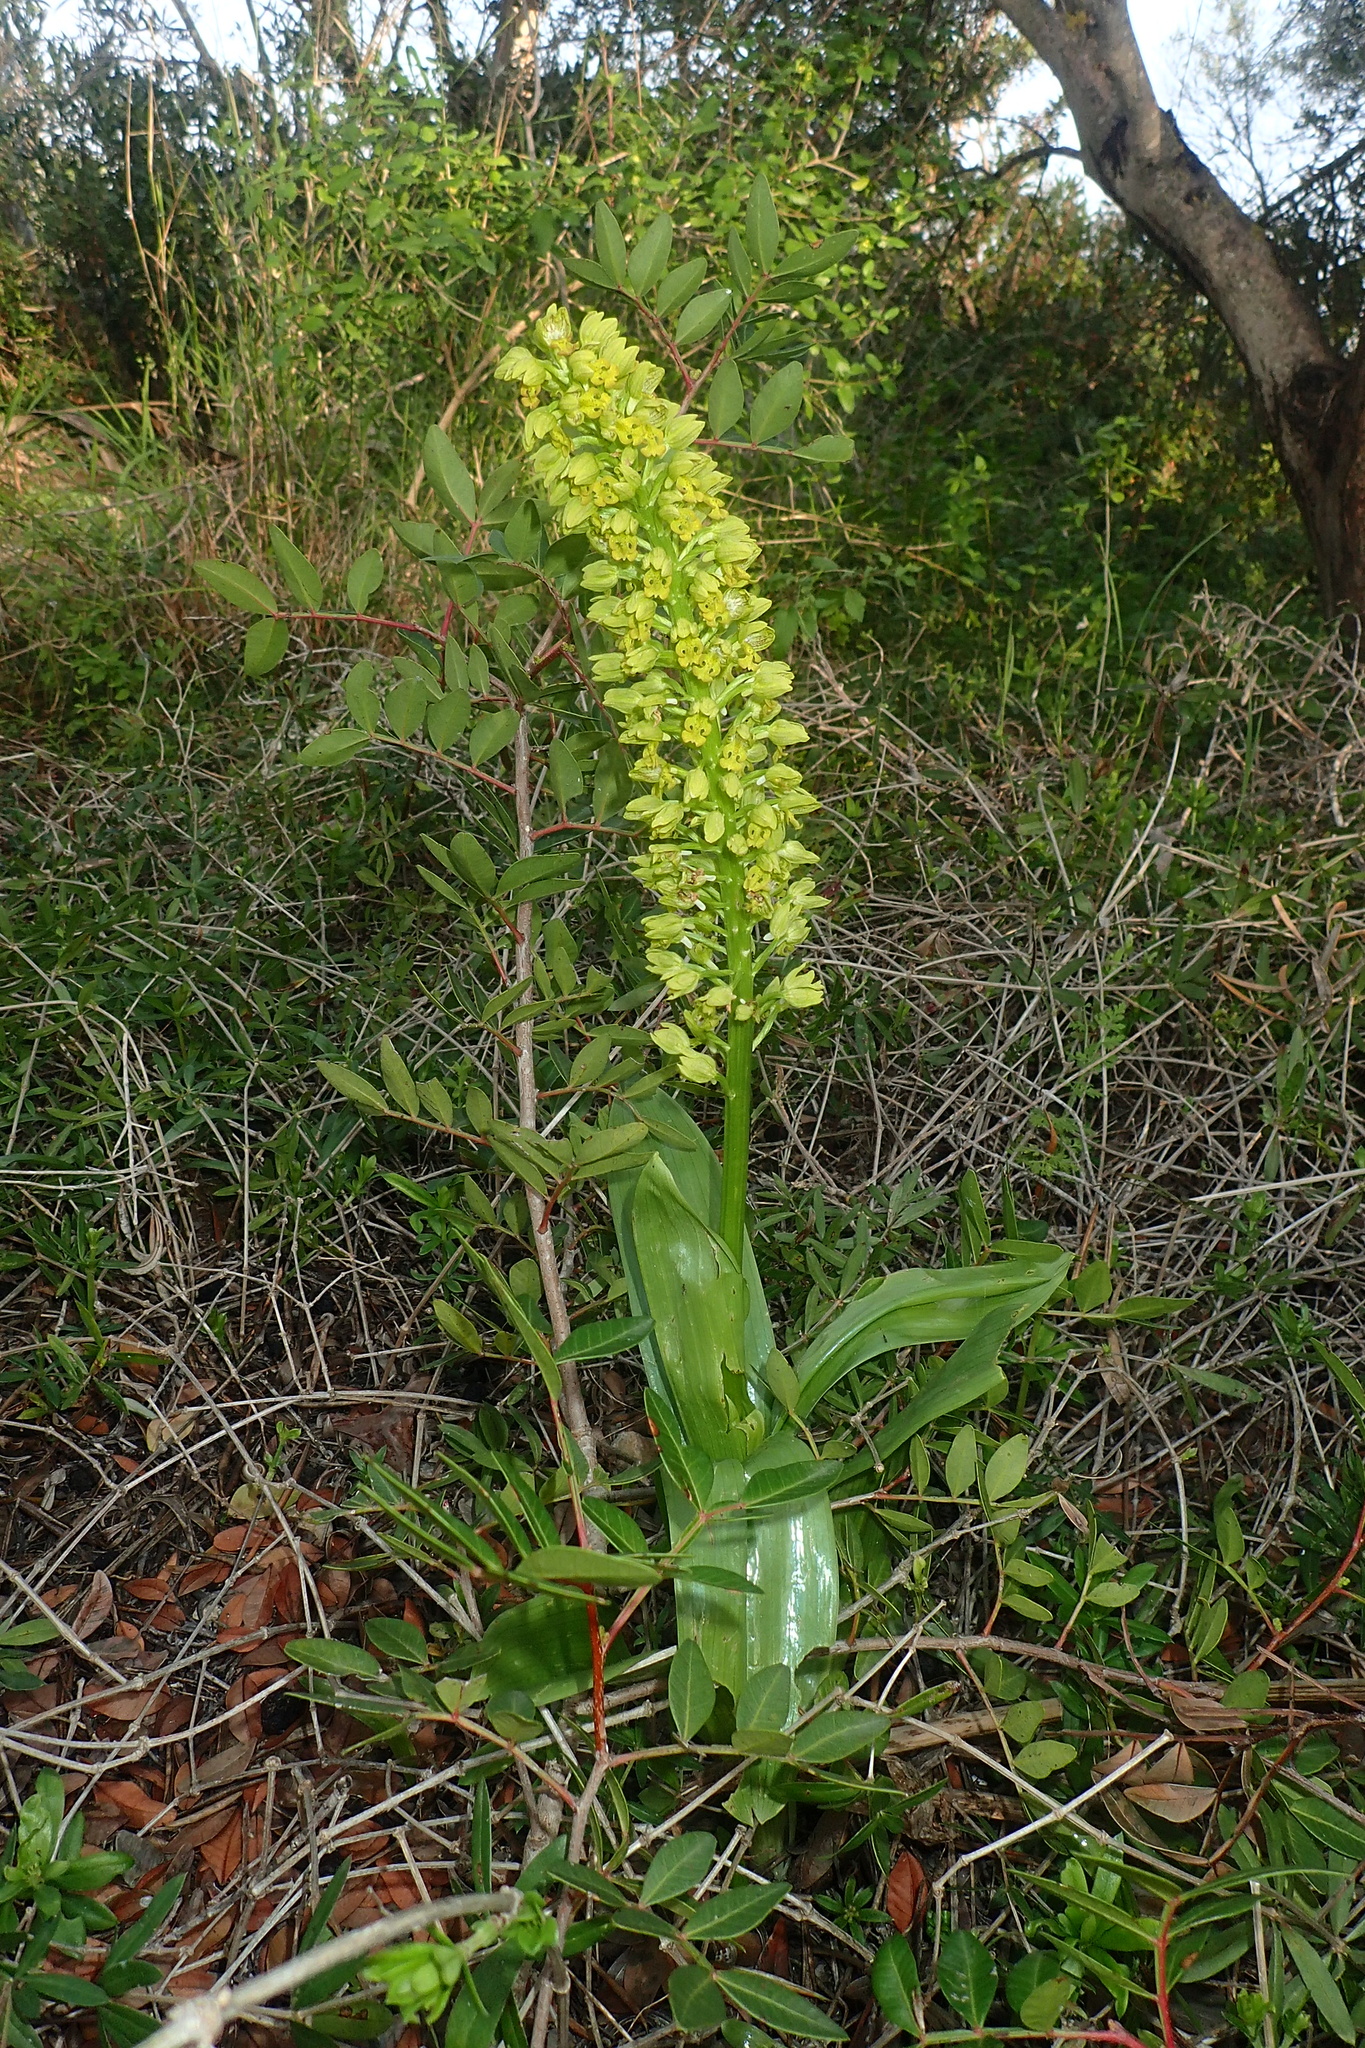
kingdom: Plantae
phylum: Tracheophyta
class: Liliopsida
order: Asparagales
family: Orchidaceae
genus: Orchis
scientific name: Orchis punctulata
